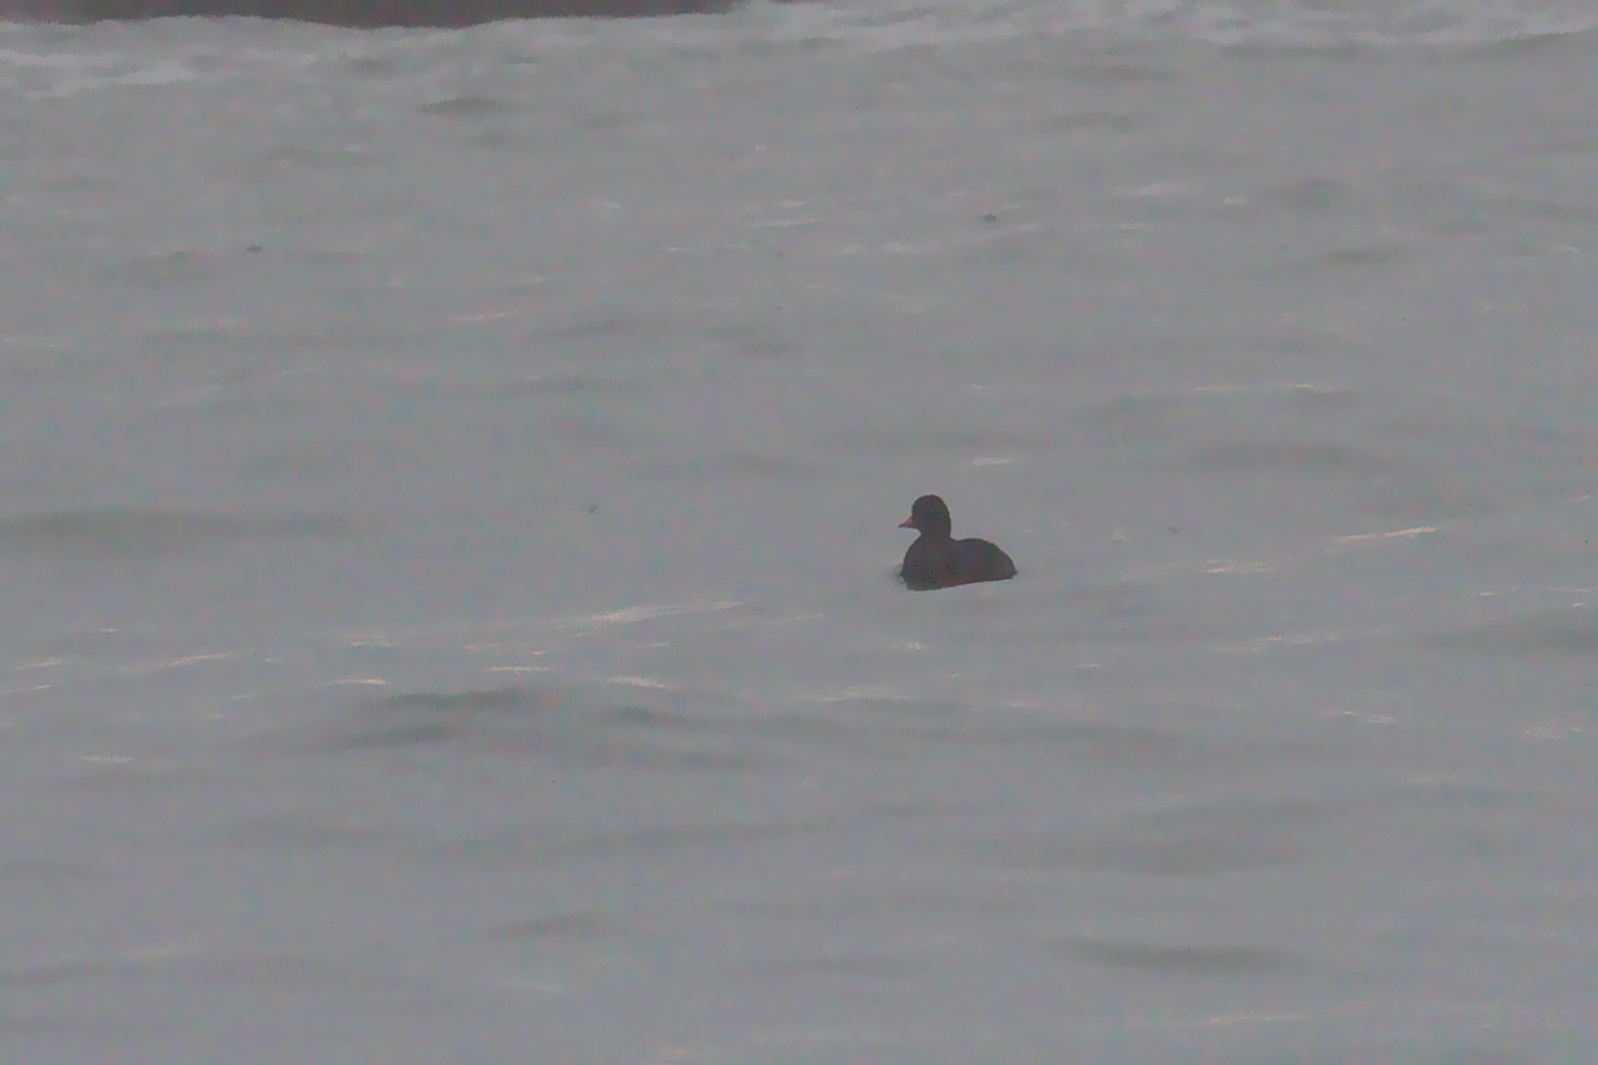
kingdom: Animalia
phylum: Chordata
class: Aves
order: Anseriformes
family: Anatidae
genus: Melanitta
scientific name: Melanitta americana
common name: Black scoter
